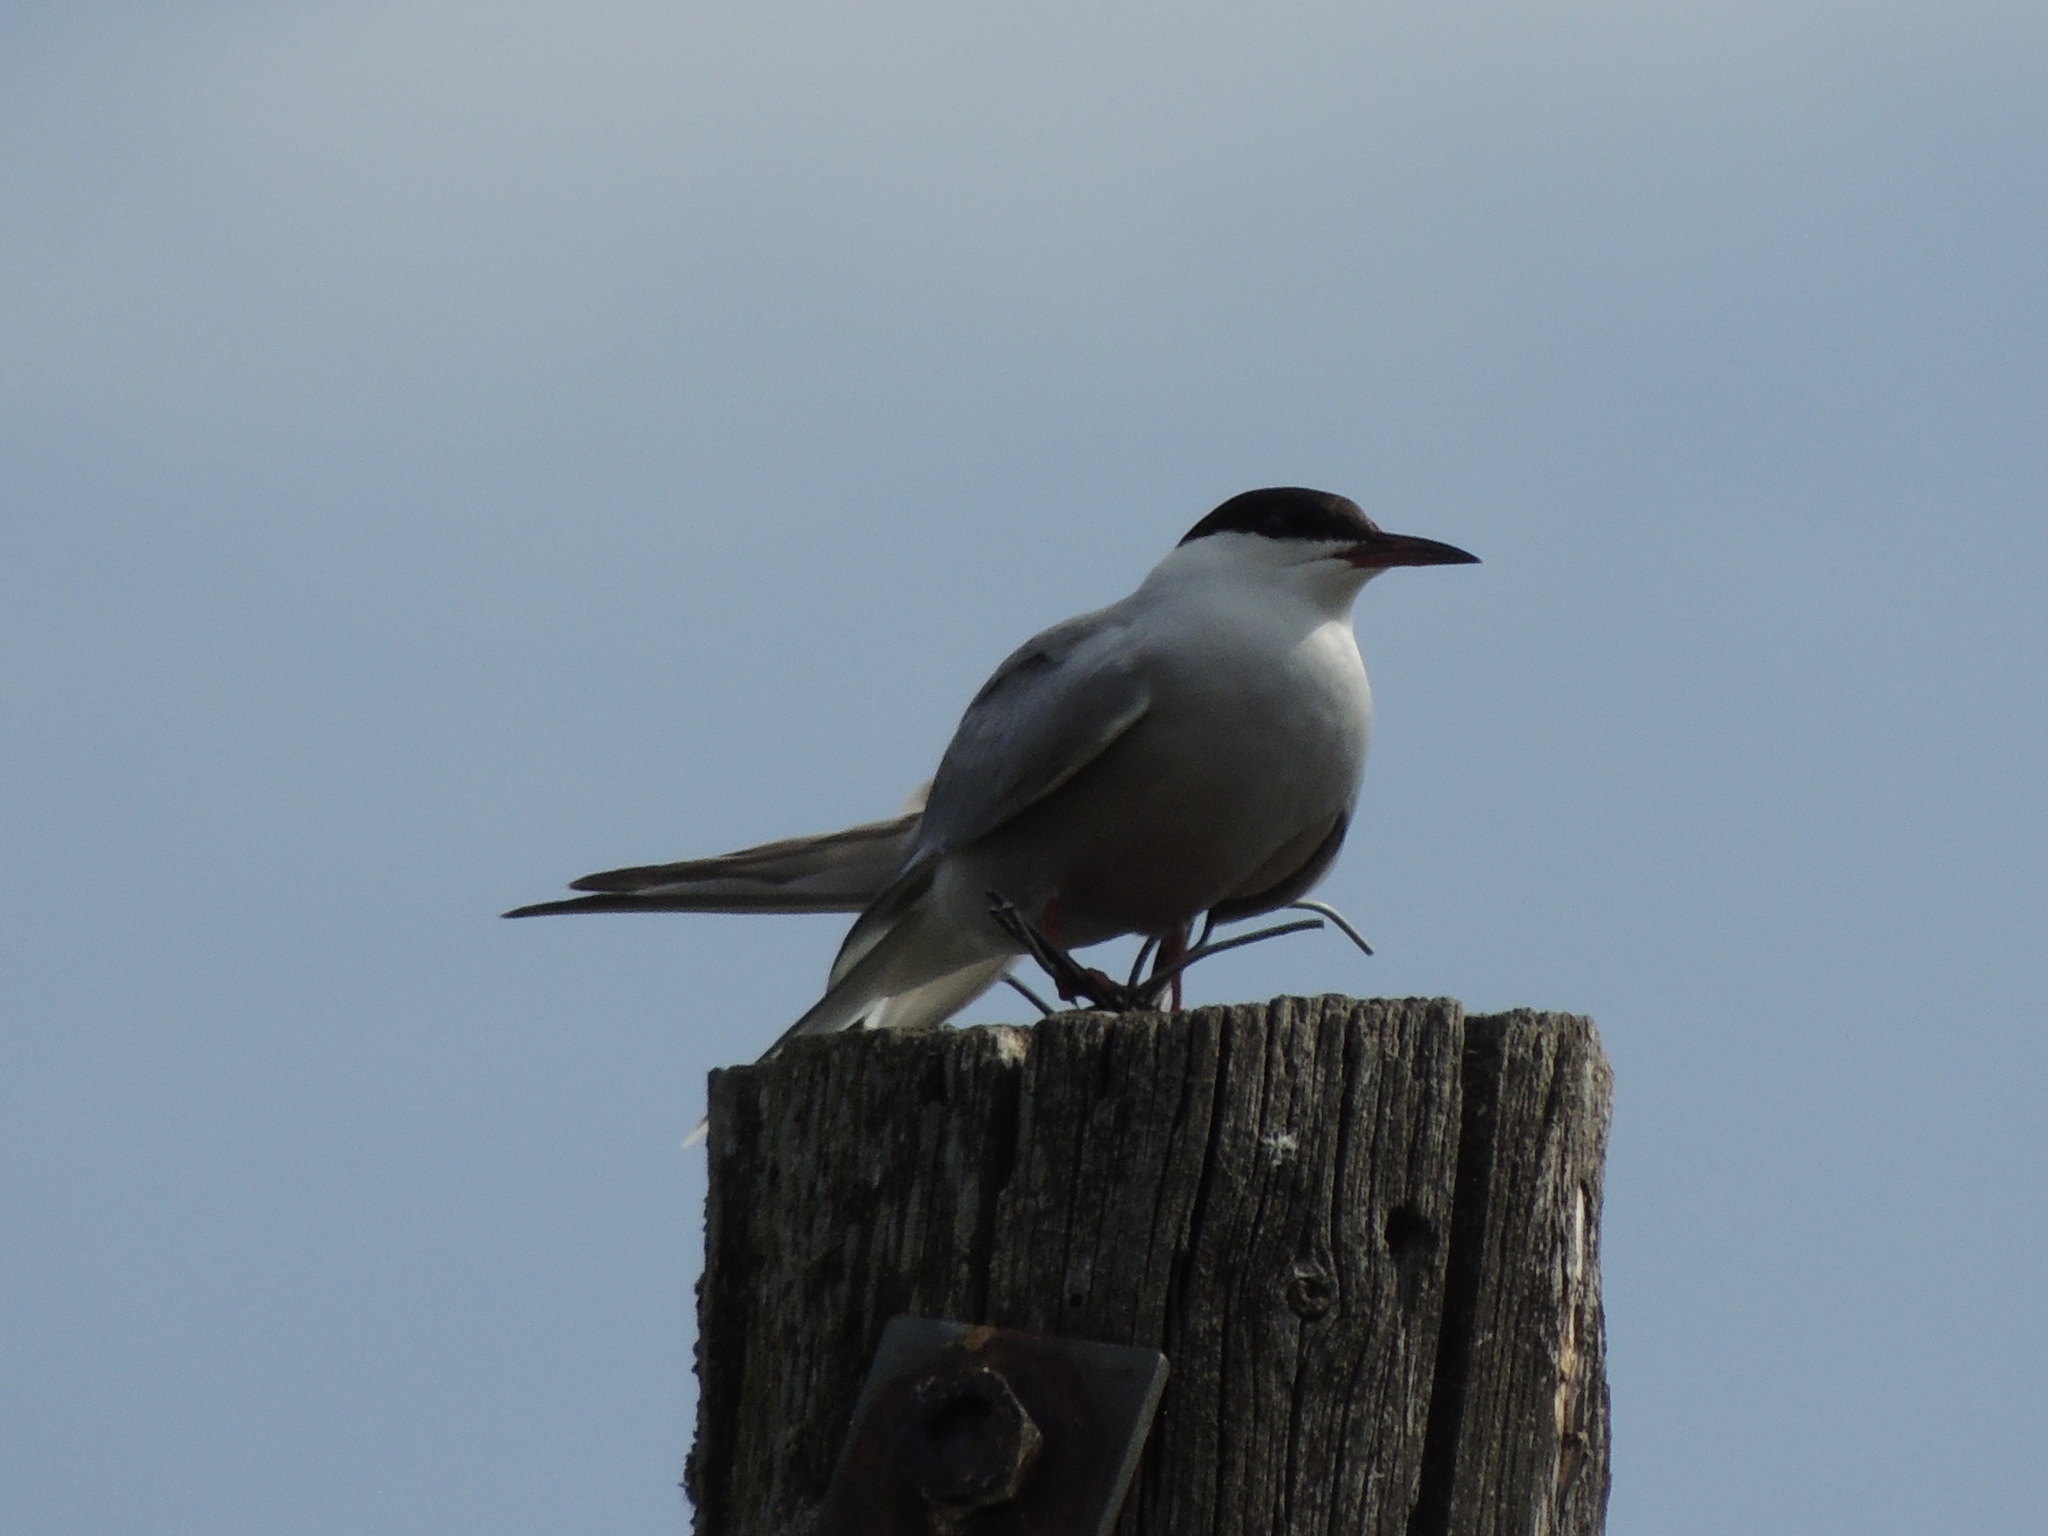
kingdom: Animalia
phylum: Chordata
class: Aves
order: Charadriiformes
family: Laridae
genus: Sterna
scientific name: Sterna hirundo
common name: Common tern
